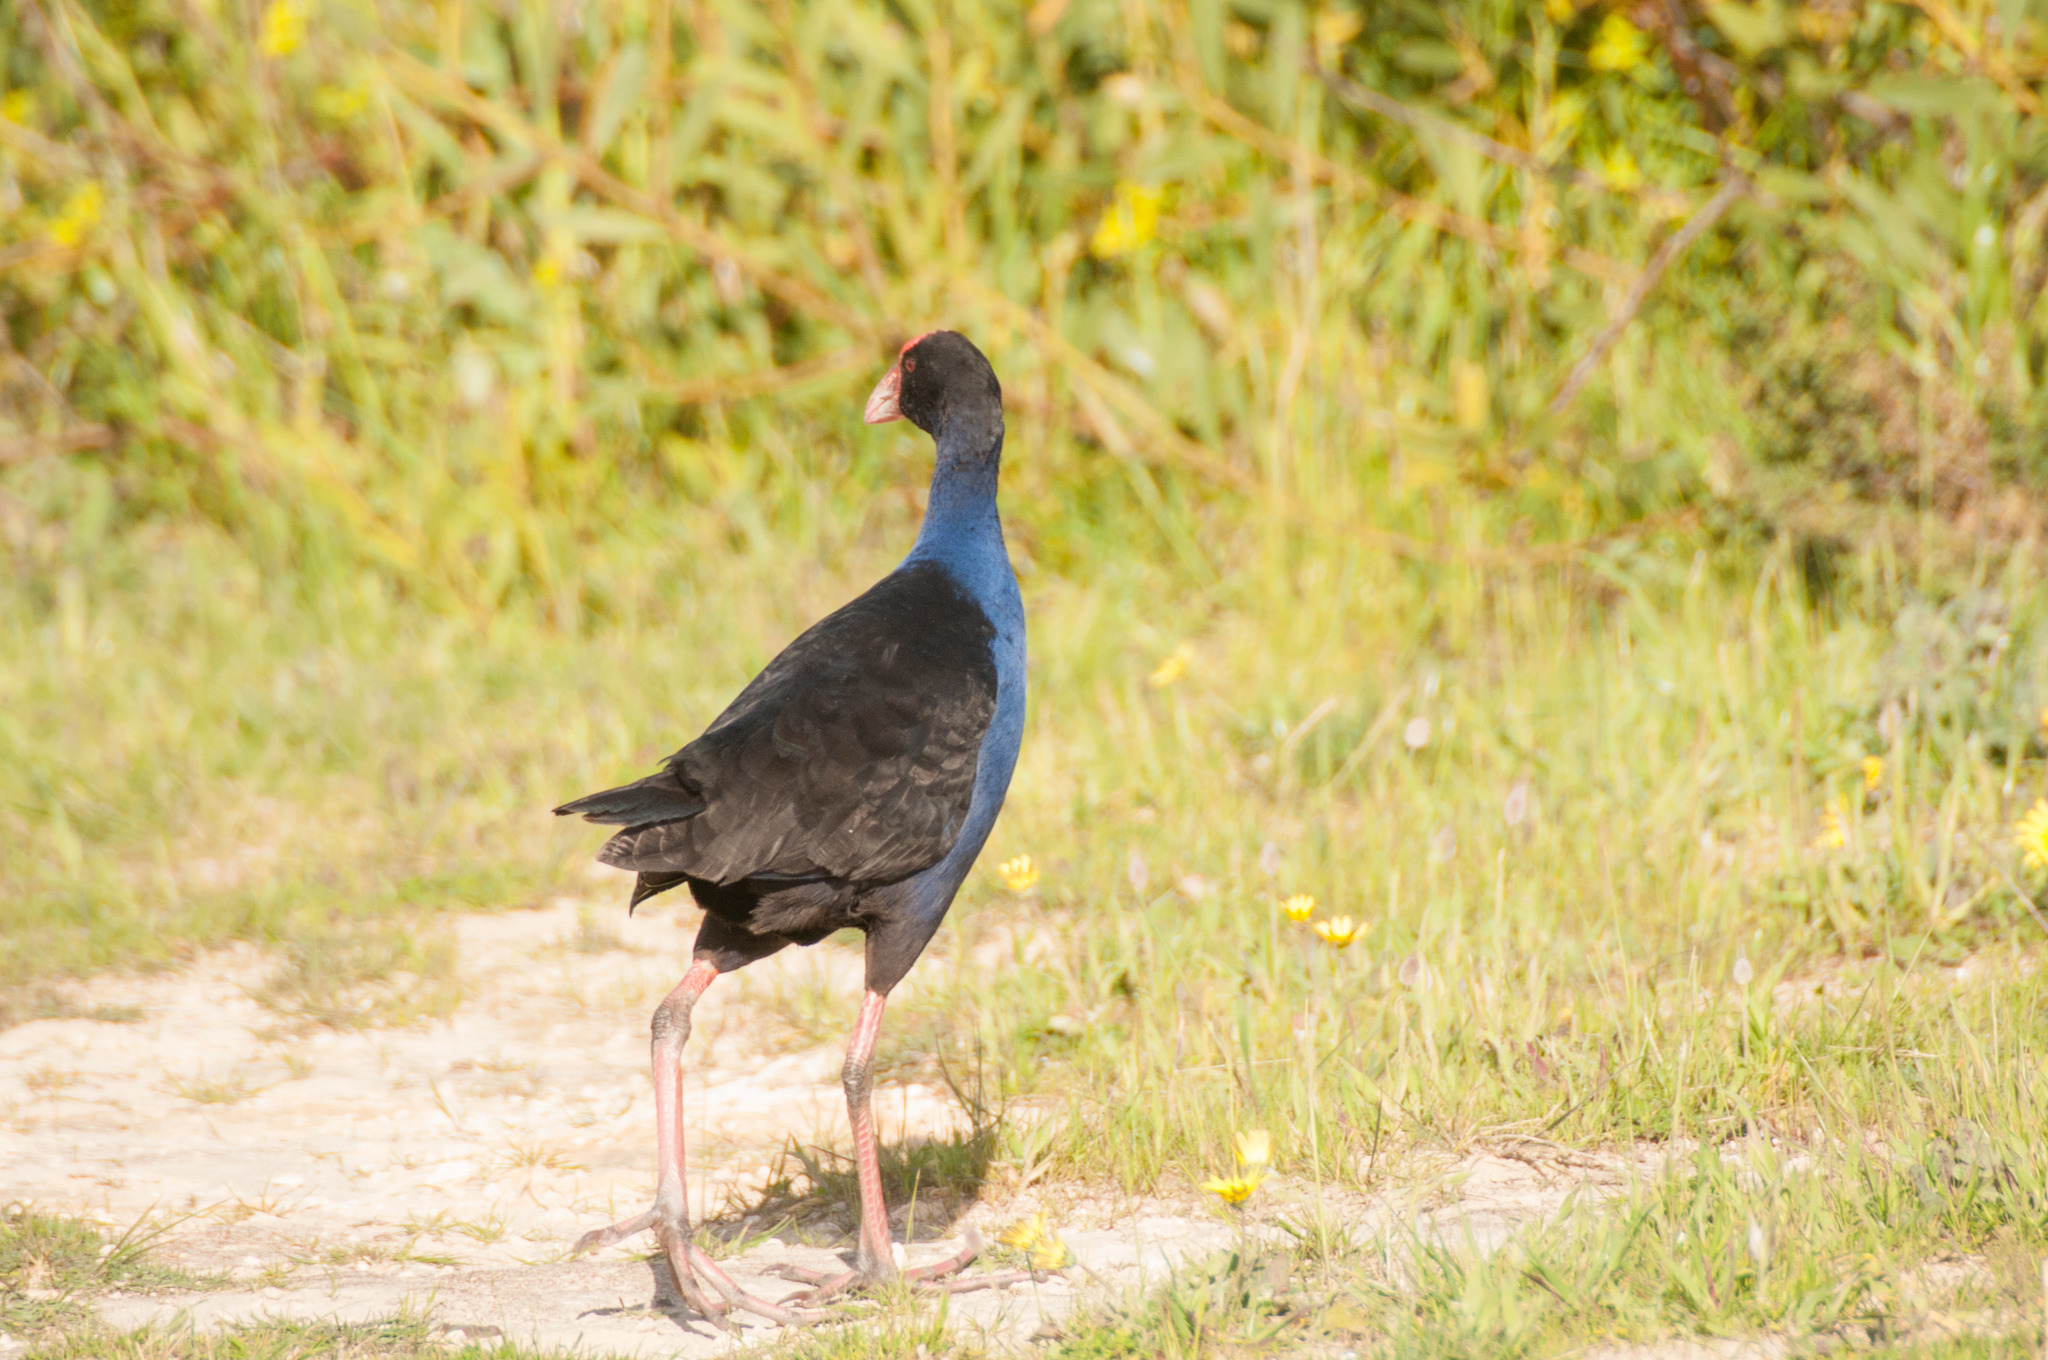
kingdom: Animalia
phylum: Chordata
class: Aves
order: Gruiformes
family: Rallidae
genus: Porphyrio
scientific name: Porphyrio melanotus
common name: Australasian swamphen
